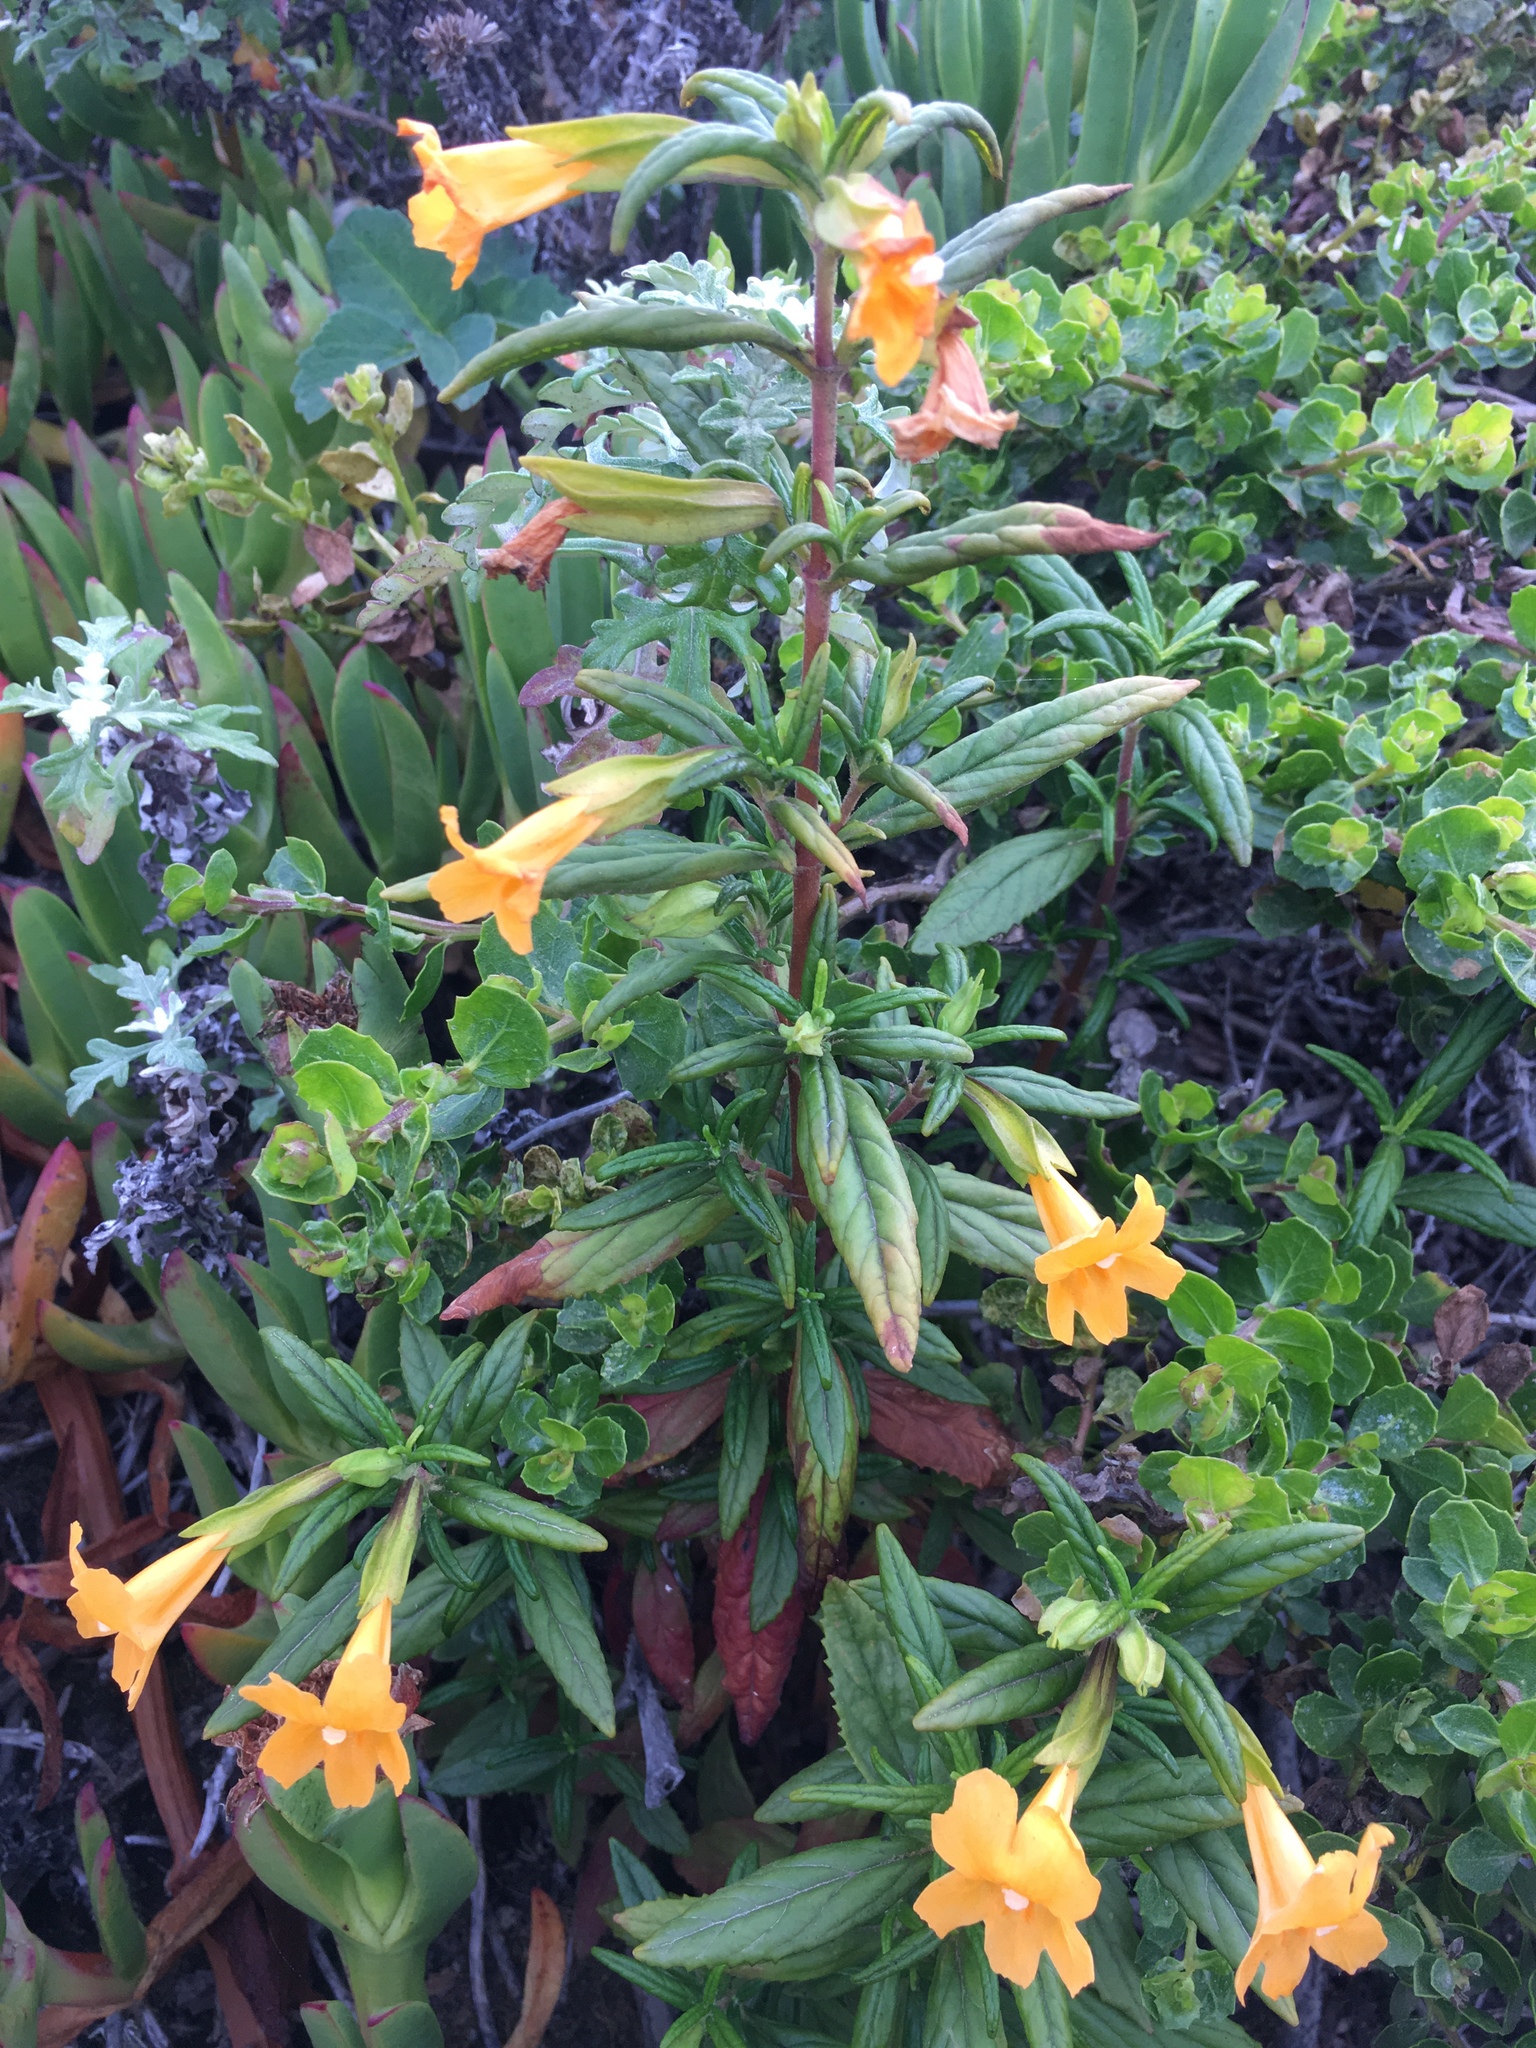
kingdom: Plantae
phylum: Tracheophyta
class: Magnoliopsida
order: Lamiales
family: Phrymaceae
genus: Diplacus
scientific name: Diplacus aurantiacus
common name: Bush monkey-flower
